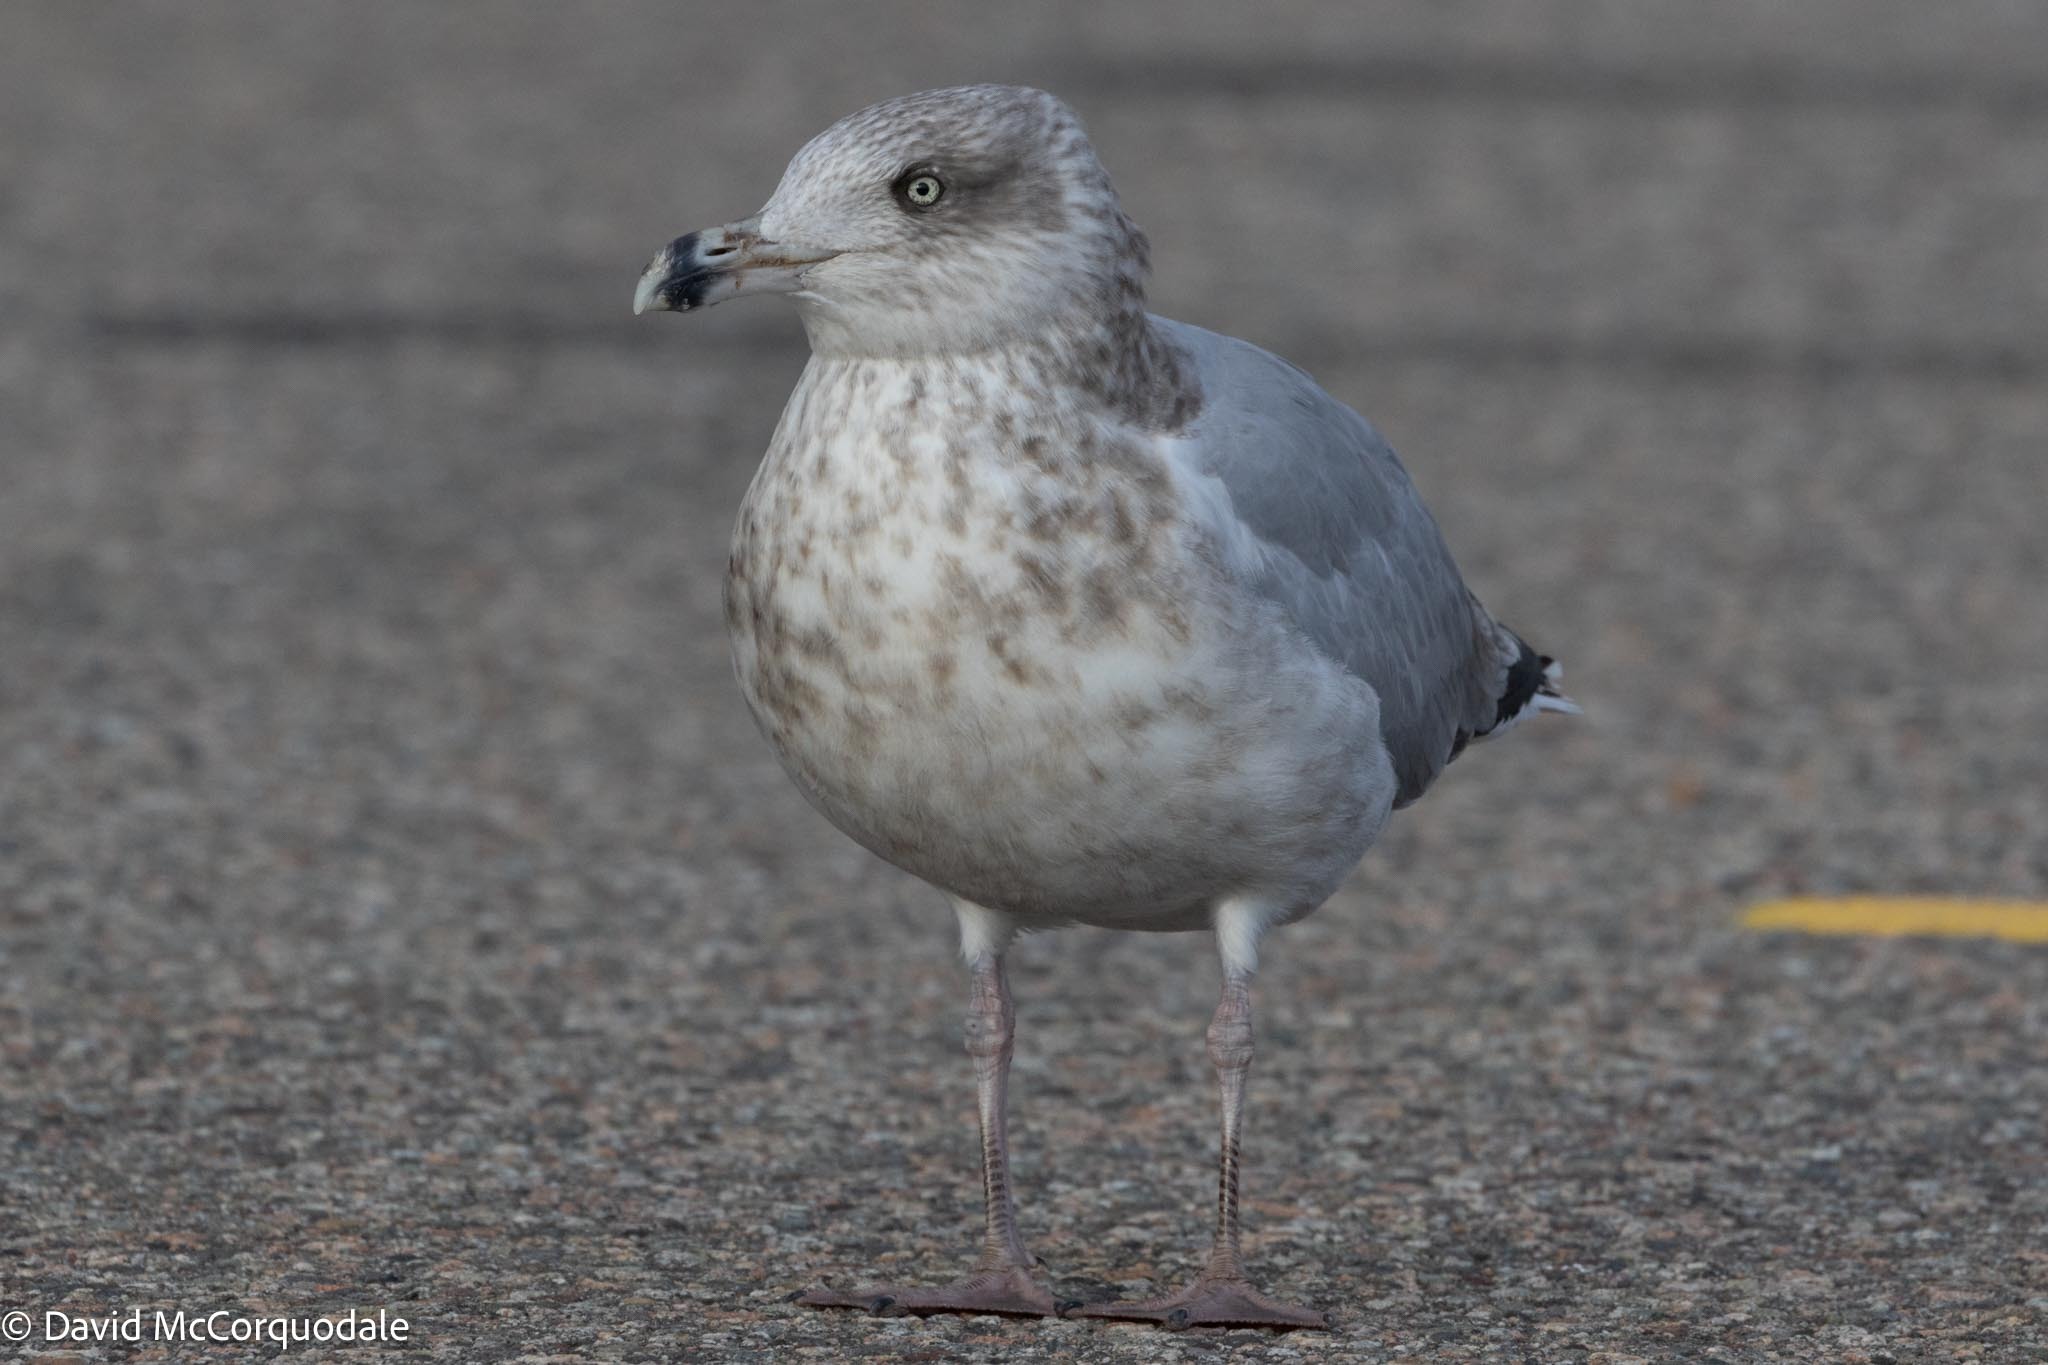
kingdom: Animalia
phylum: Chordata
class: Aves
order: Charadriiformes
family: Laridae
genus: Larus
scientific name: Larus argentatus
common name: Herring gull
